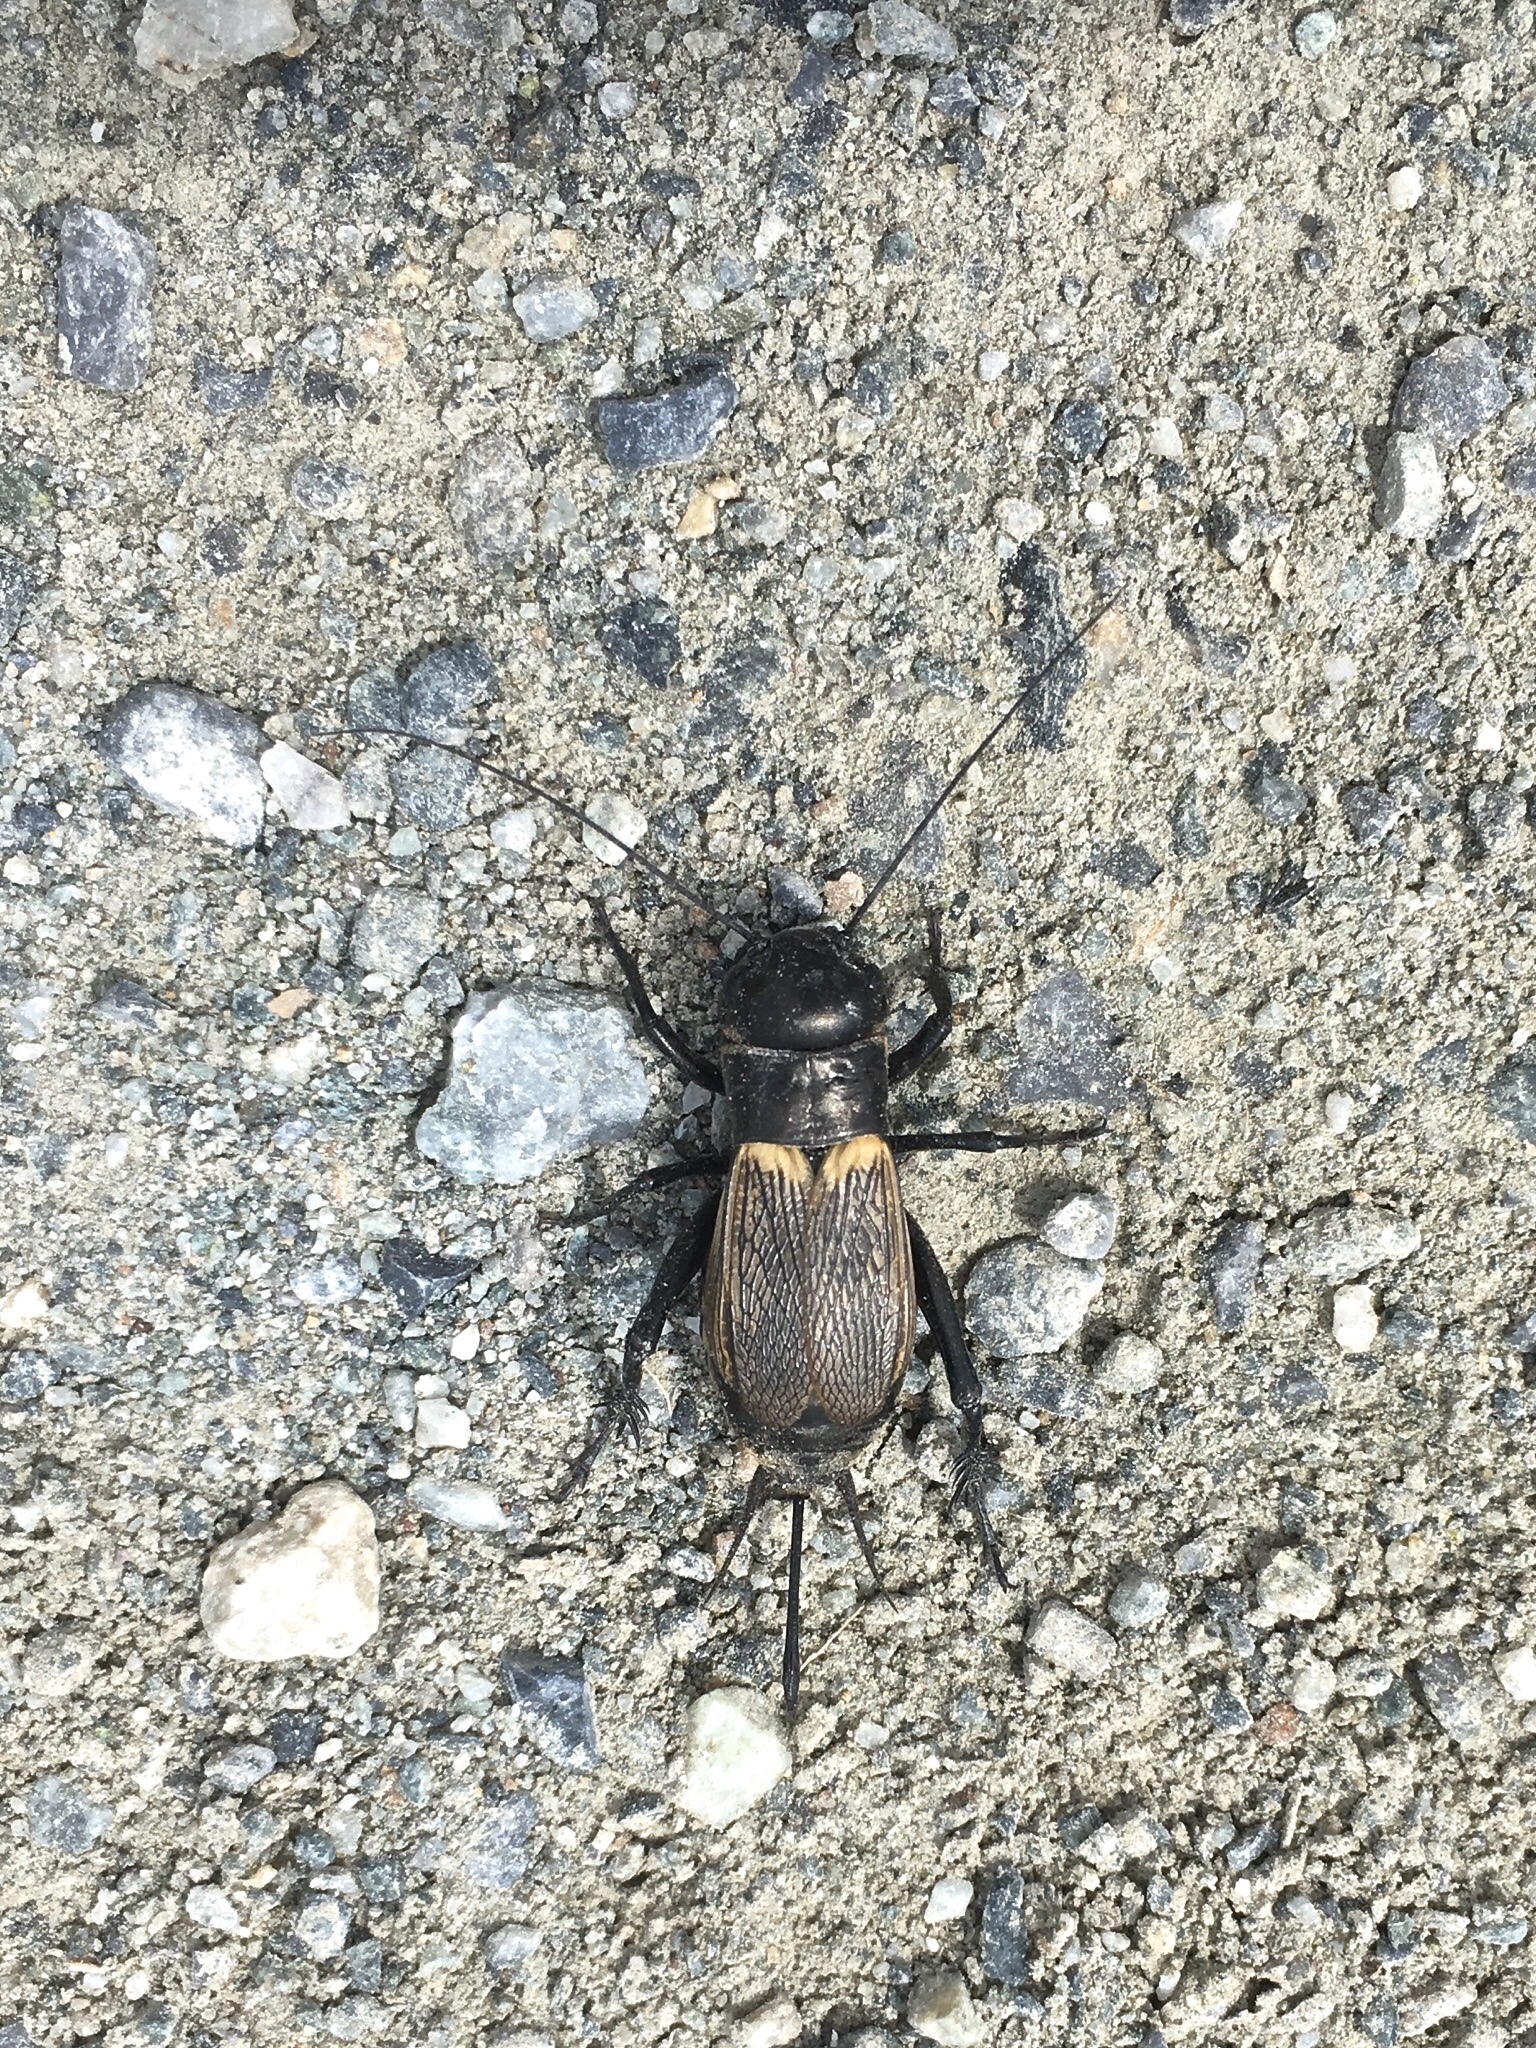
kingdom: Animalia
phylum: Arthropoda
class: Insecta
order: Orthoptera
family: Gryllidae
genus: Gryllus
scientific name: Gryllus campestris
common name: Field cricket
